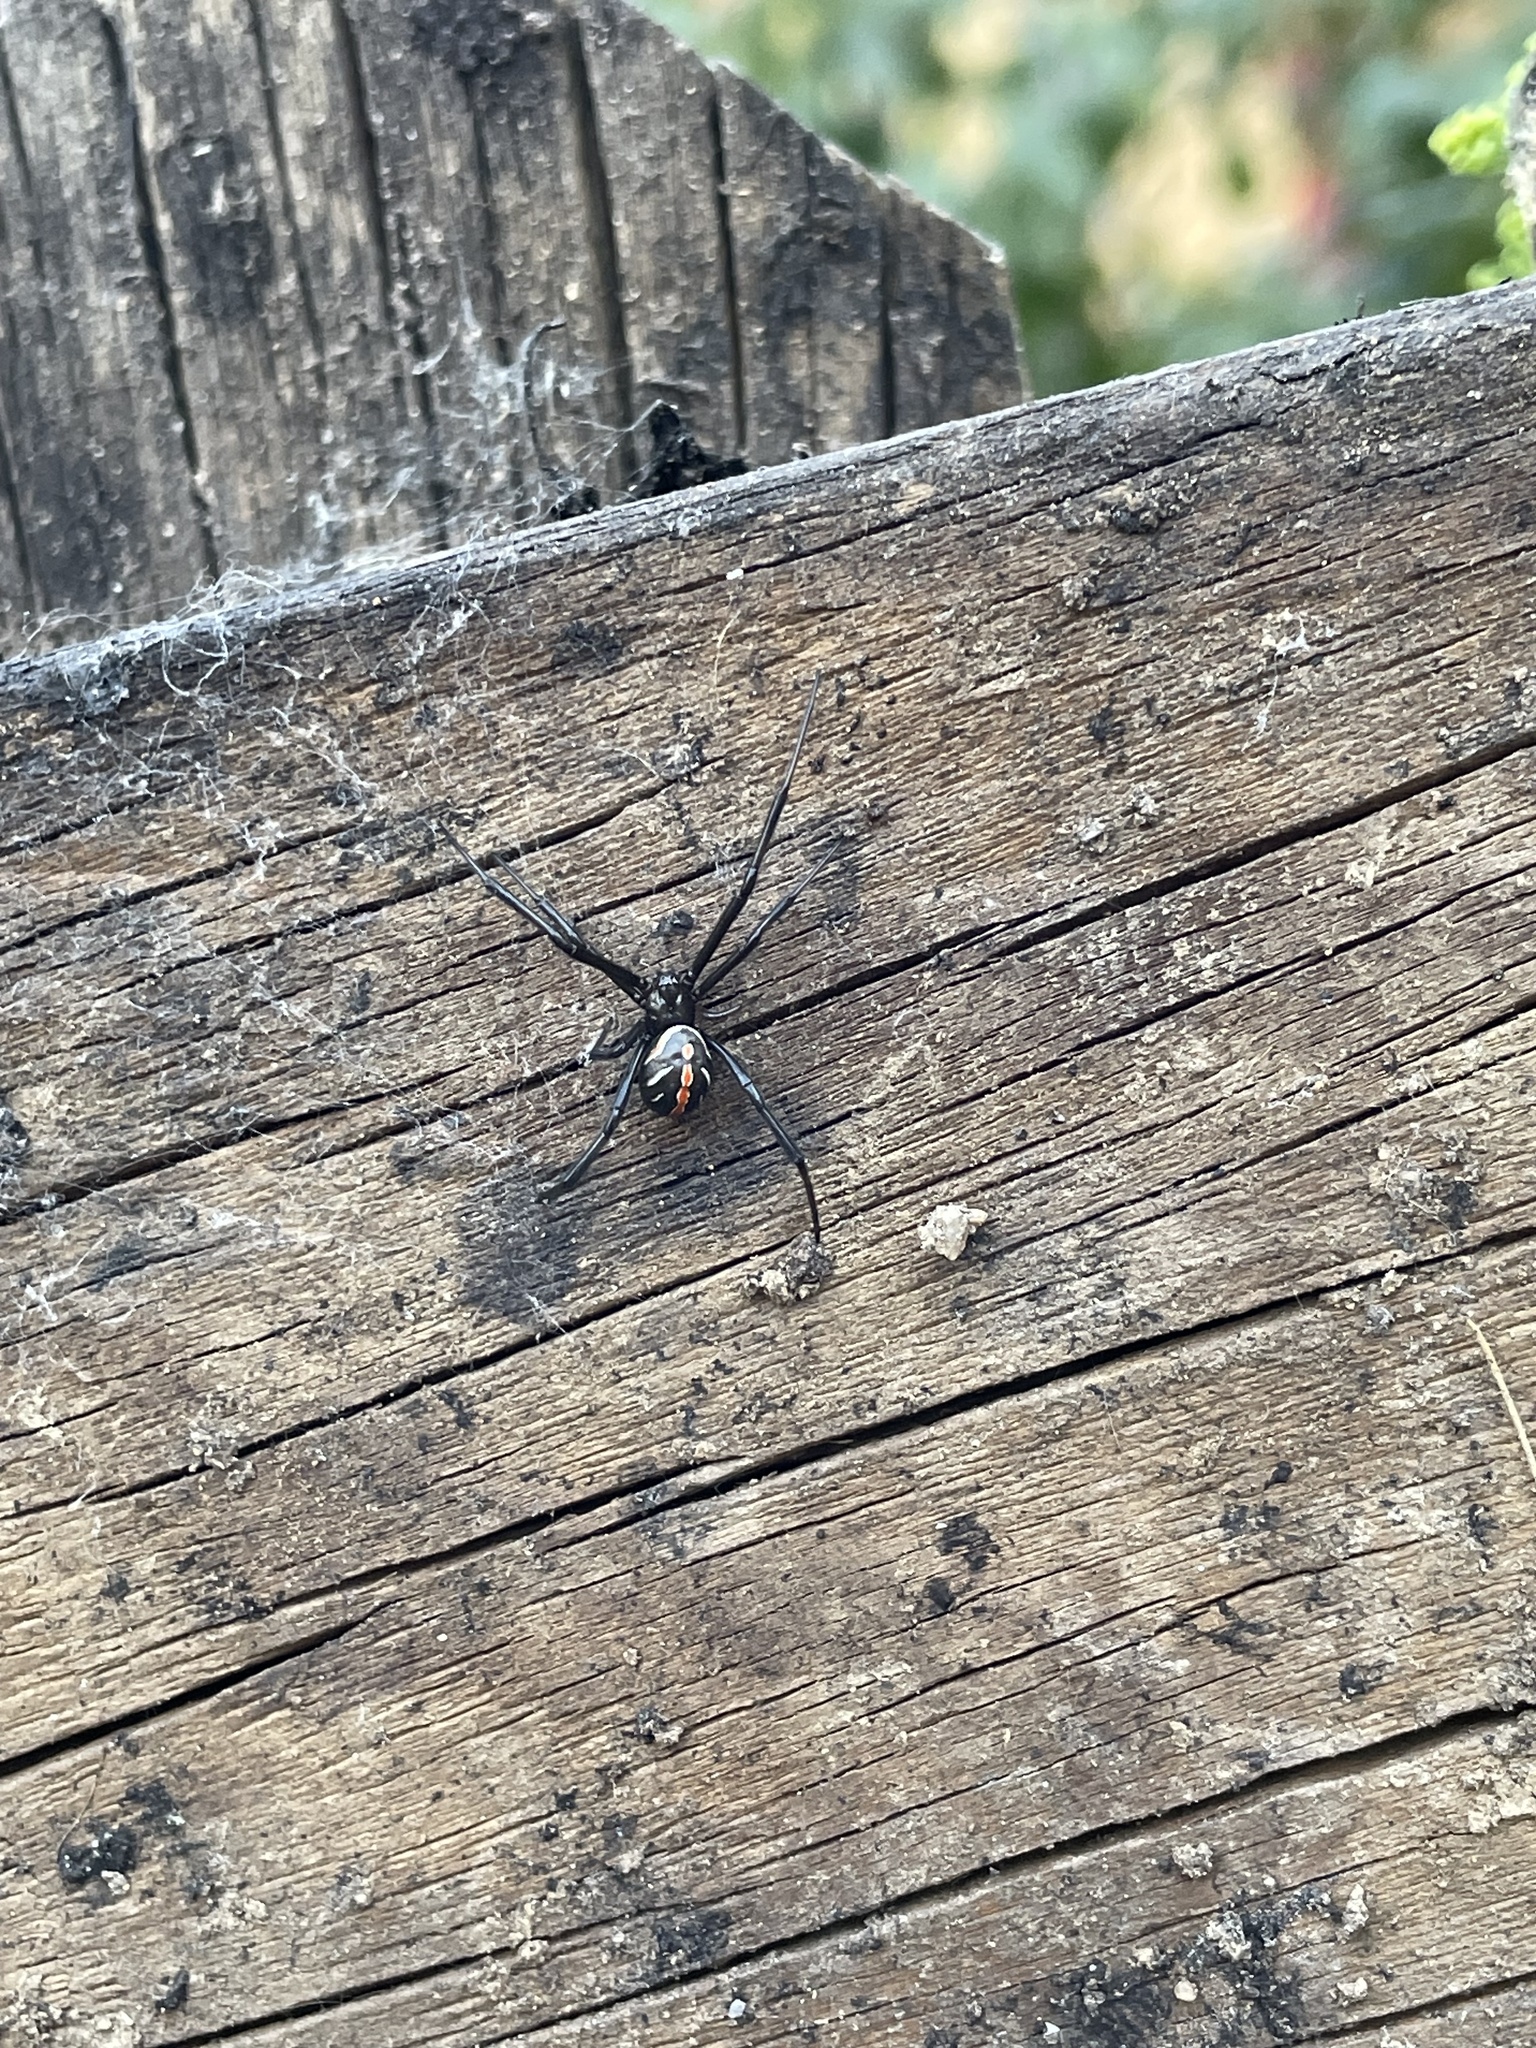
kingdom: Animalia
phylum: Arthropoda
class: Arachnida
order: Araneae
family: Theridiidae
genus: Latrodectus
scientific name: Latrodectus hesperus
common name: Western black widow
